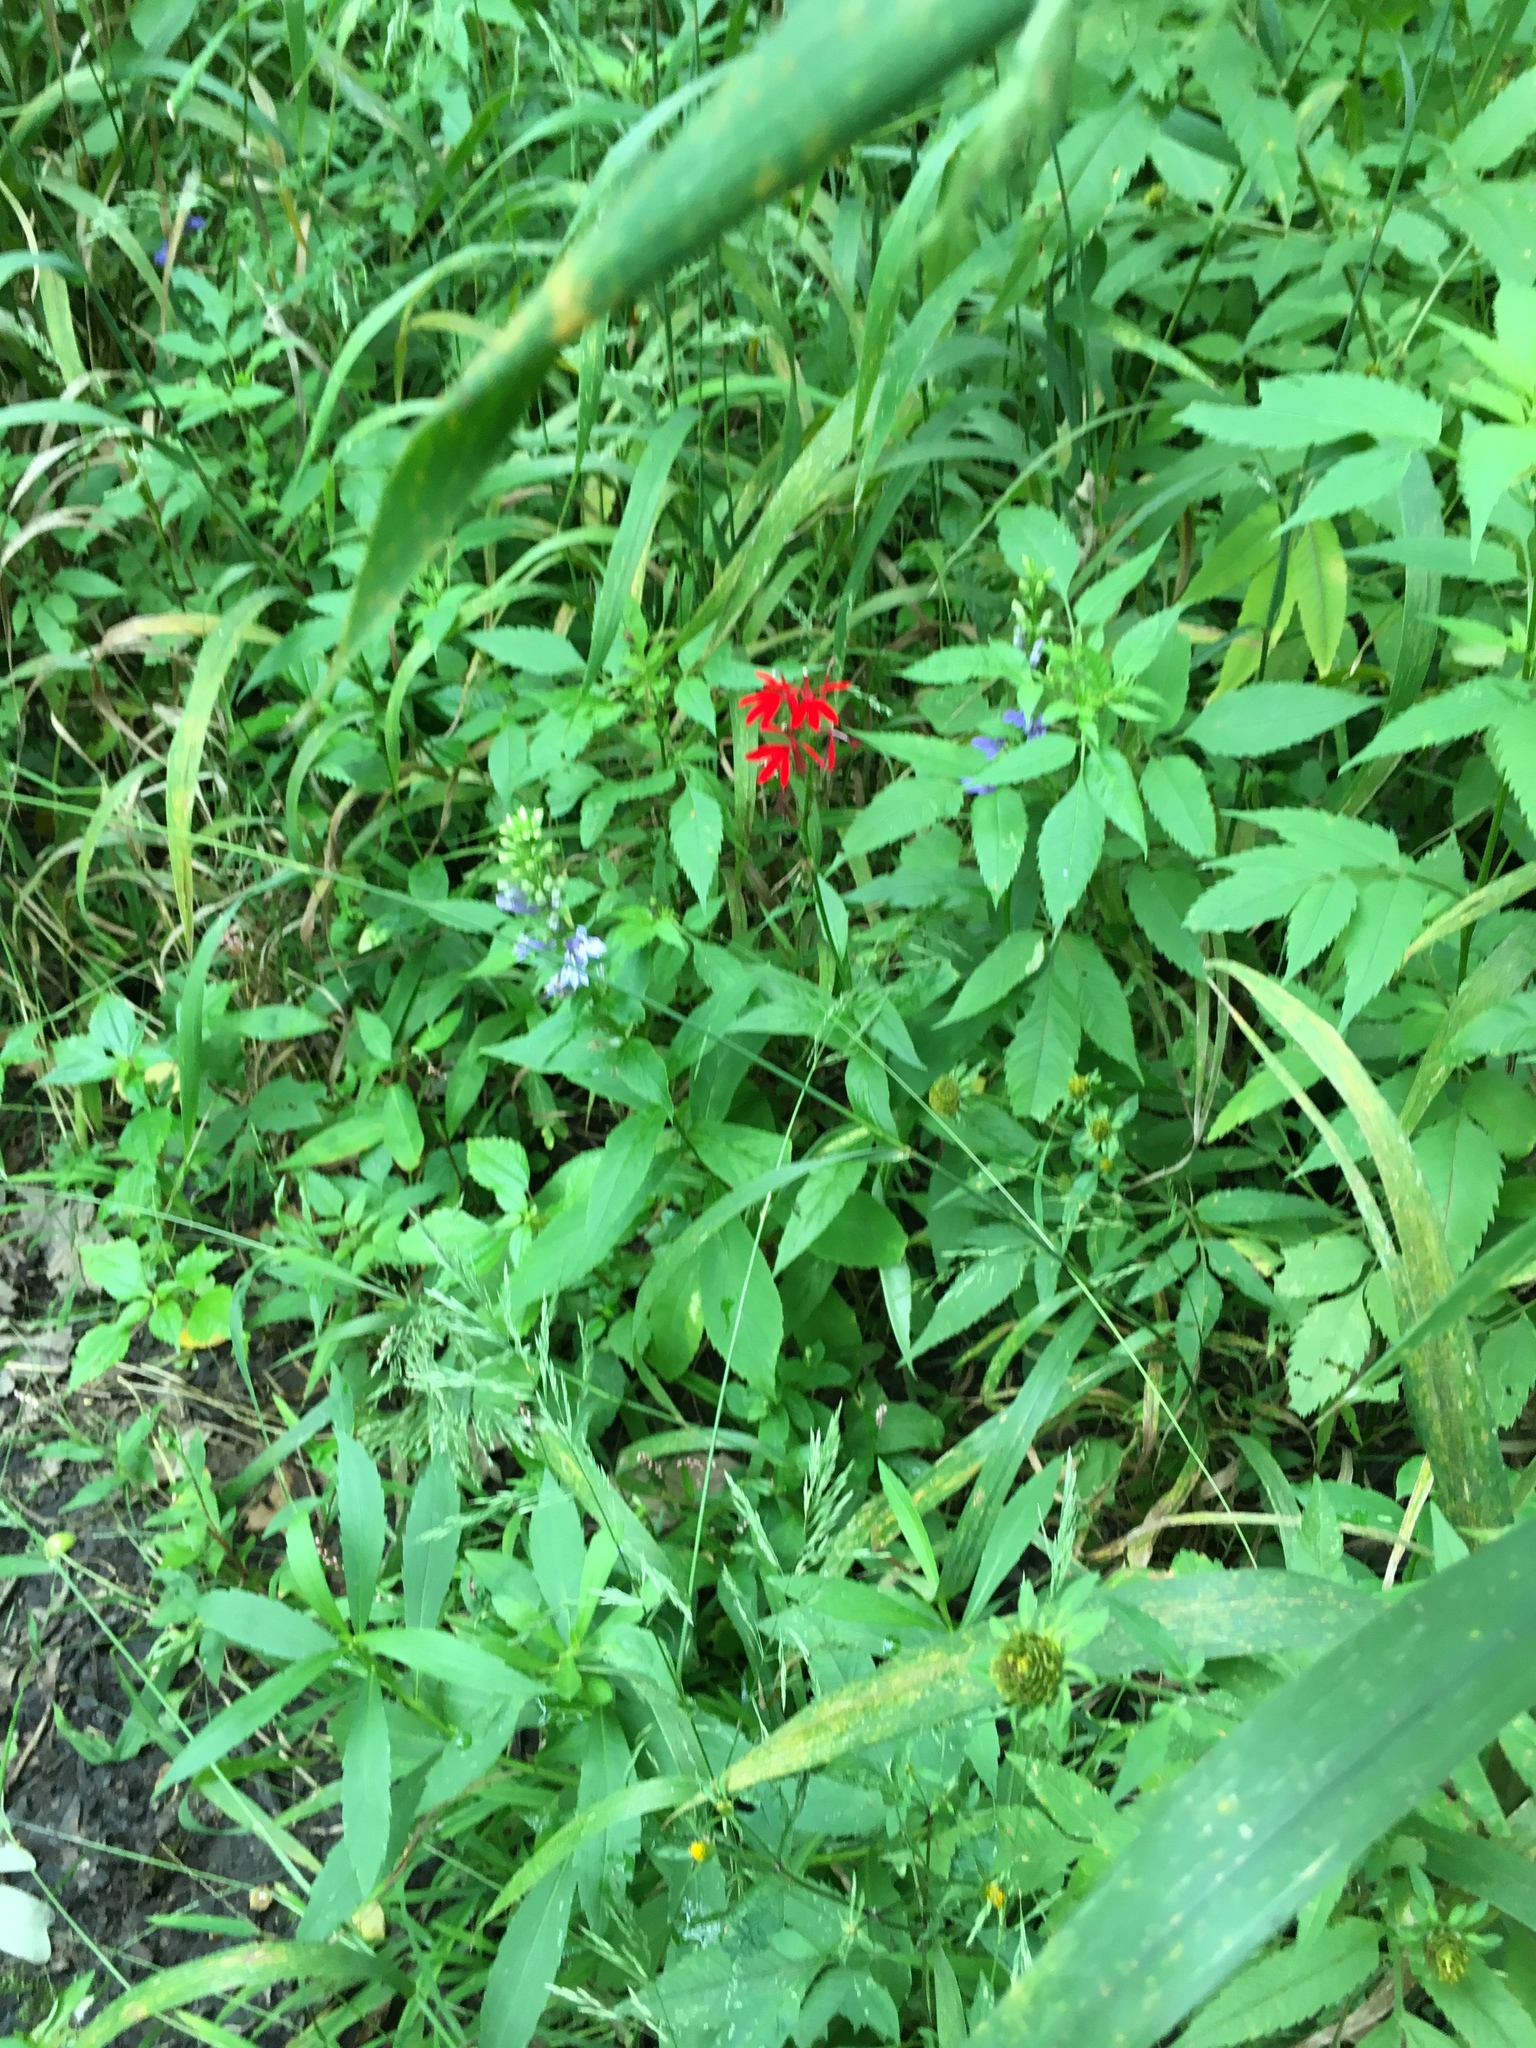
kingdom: Plantae
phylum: Tracheophyta
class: Magnoliopsida
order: Asterales
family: Campanulaceae
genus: Lobelia
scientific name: Lobelia siphilitica
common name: Great lobelia
